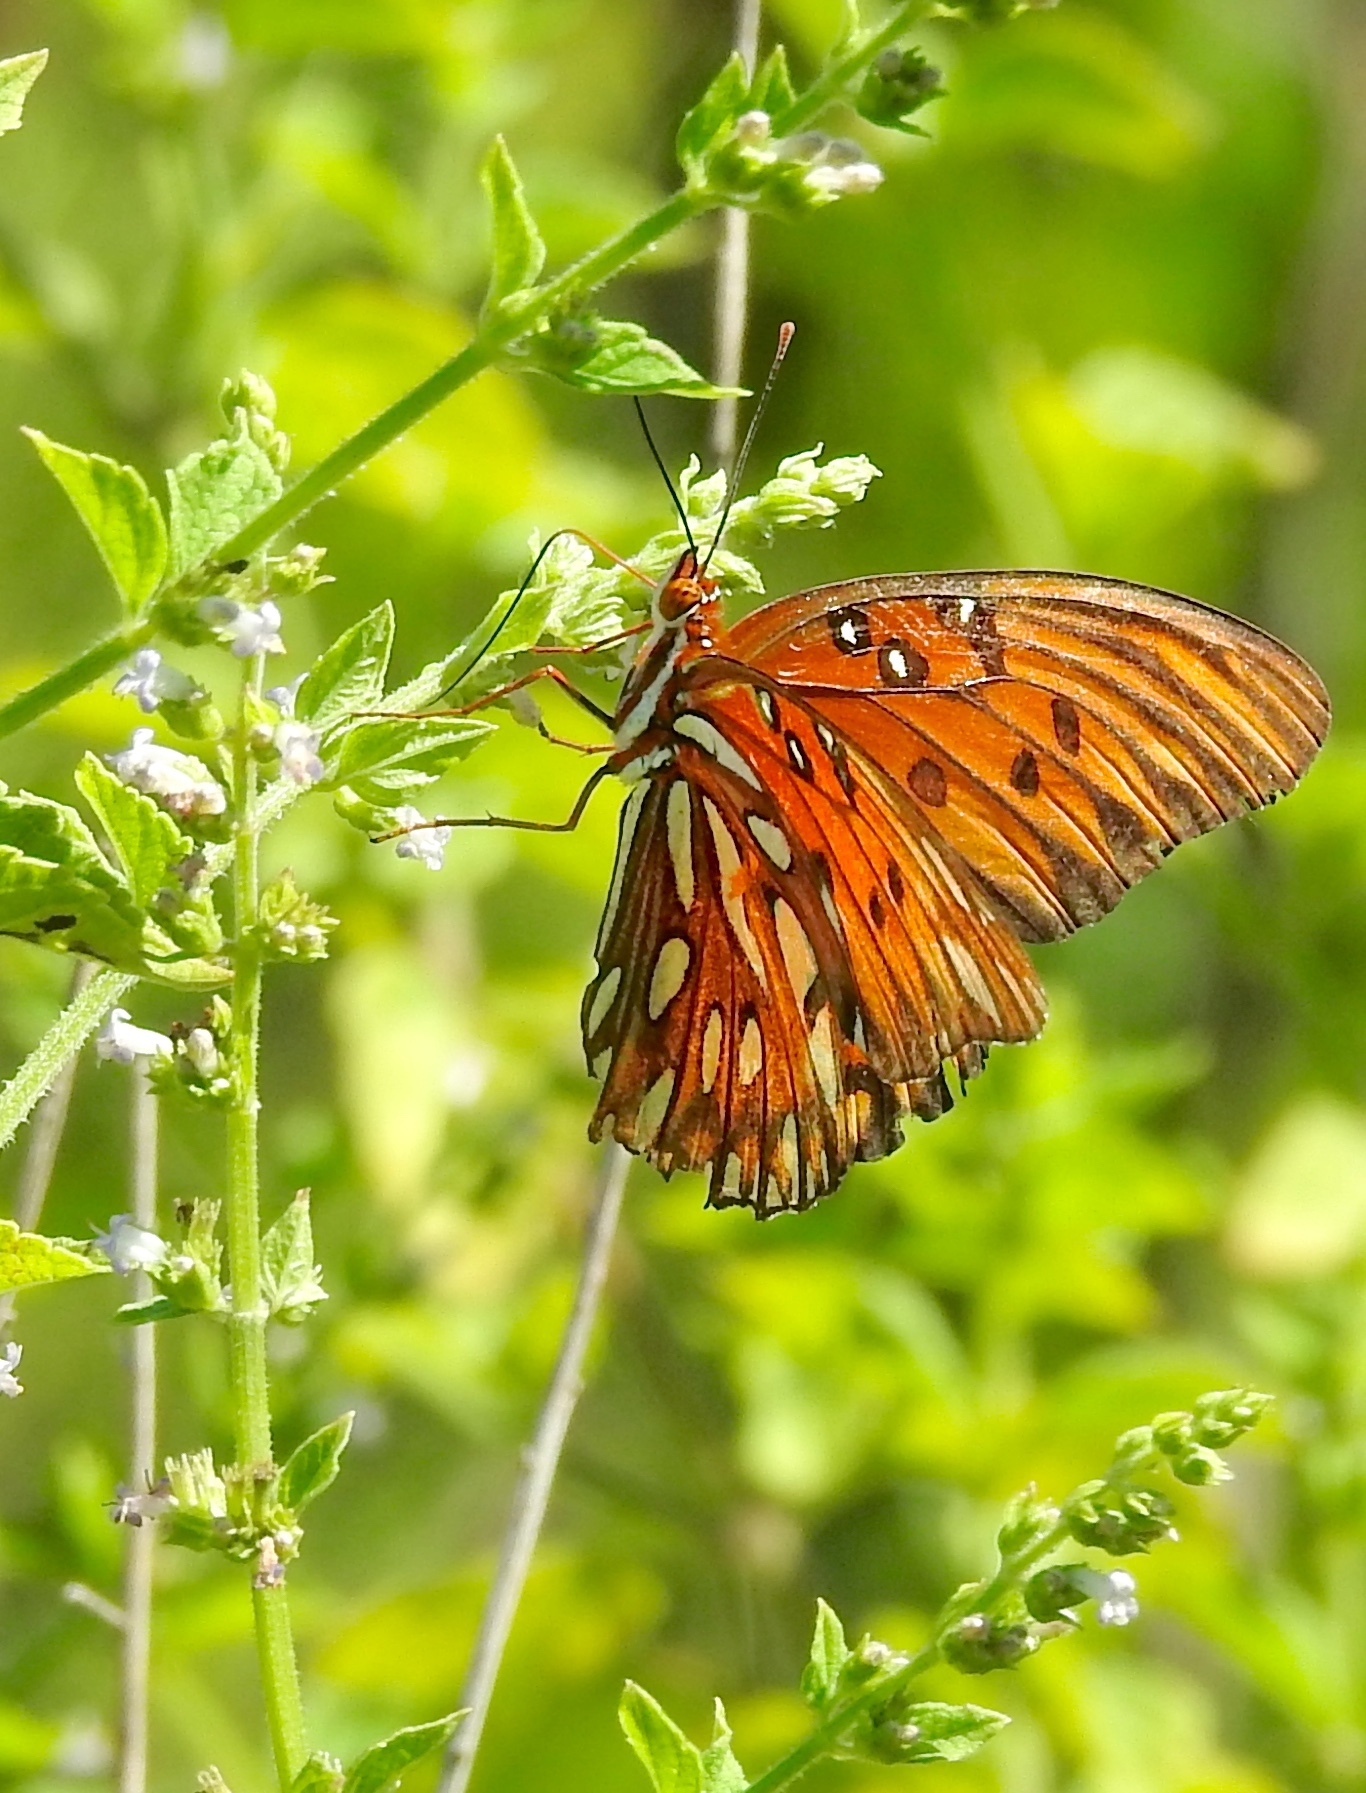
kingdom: Animalia
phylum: Arthropoda
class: Insecta
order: Lepidoptera
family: Nymphalidae
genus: Dione
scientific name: Dione vanillae
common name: Gulf fritillary
